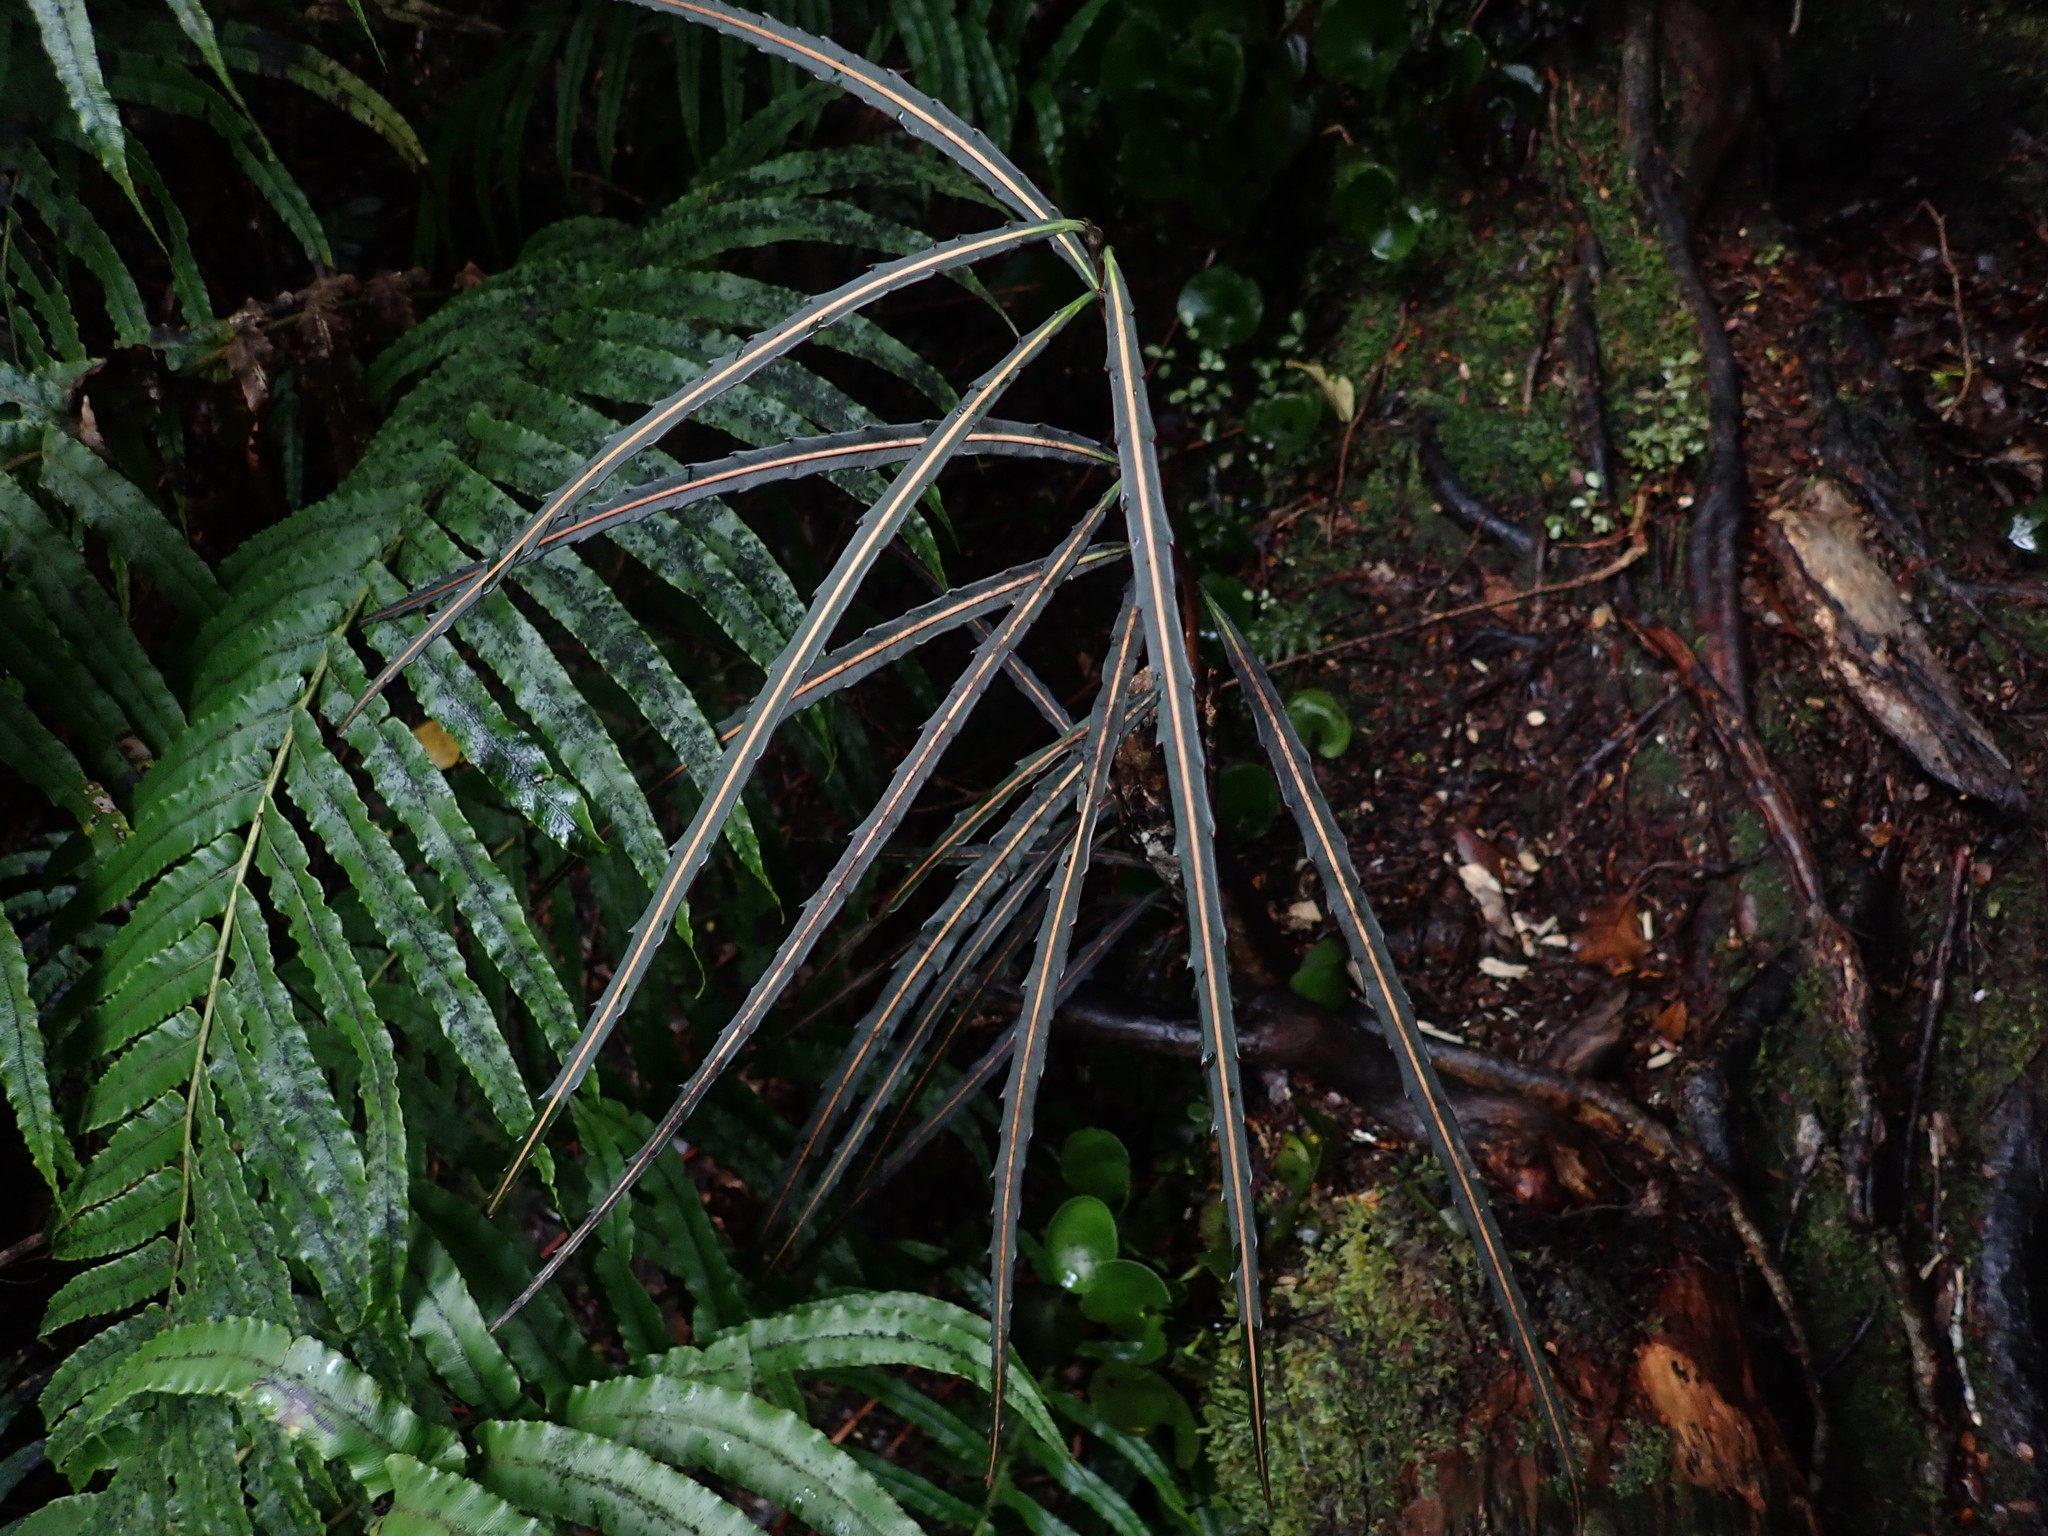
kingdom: Plantae
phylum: Tracheophyta
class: Magnoliopsida
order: Apiales
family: Araliaceae
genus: Pseudopanax
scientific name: Pseudopanax crassifolius
